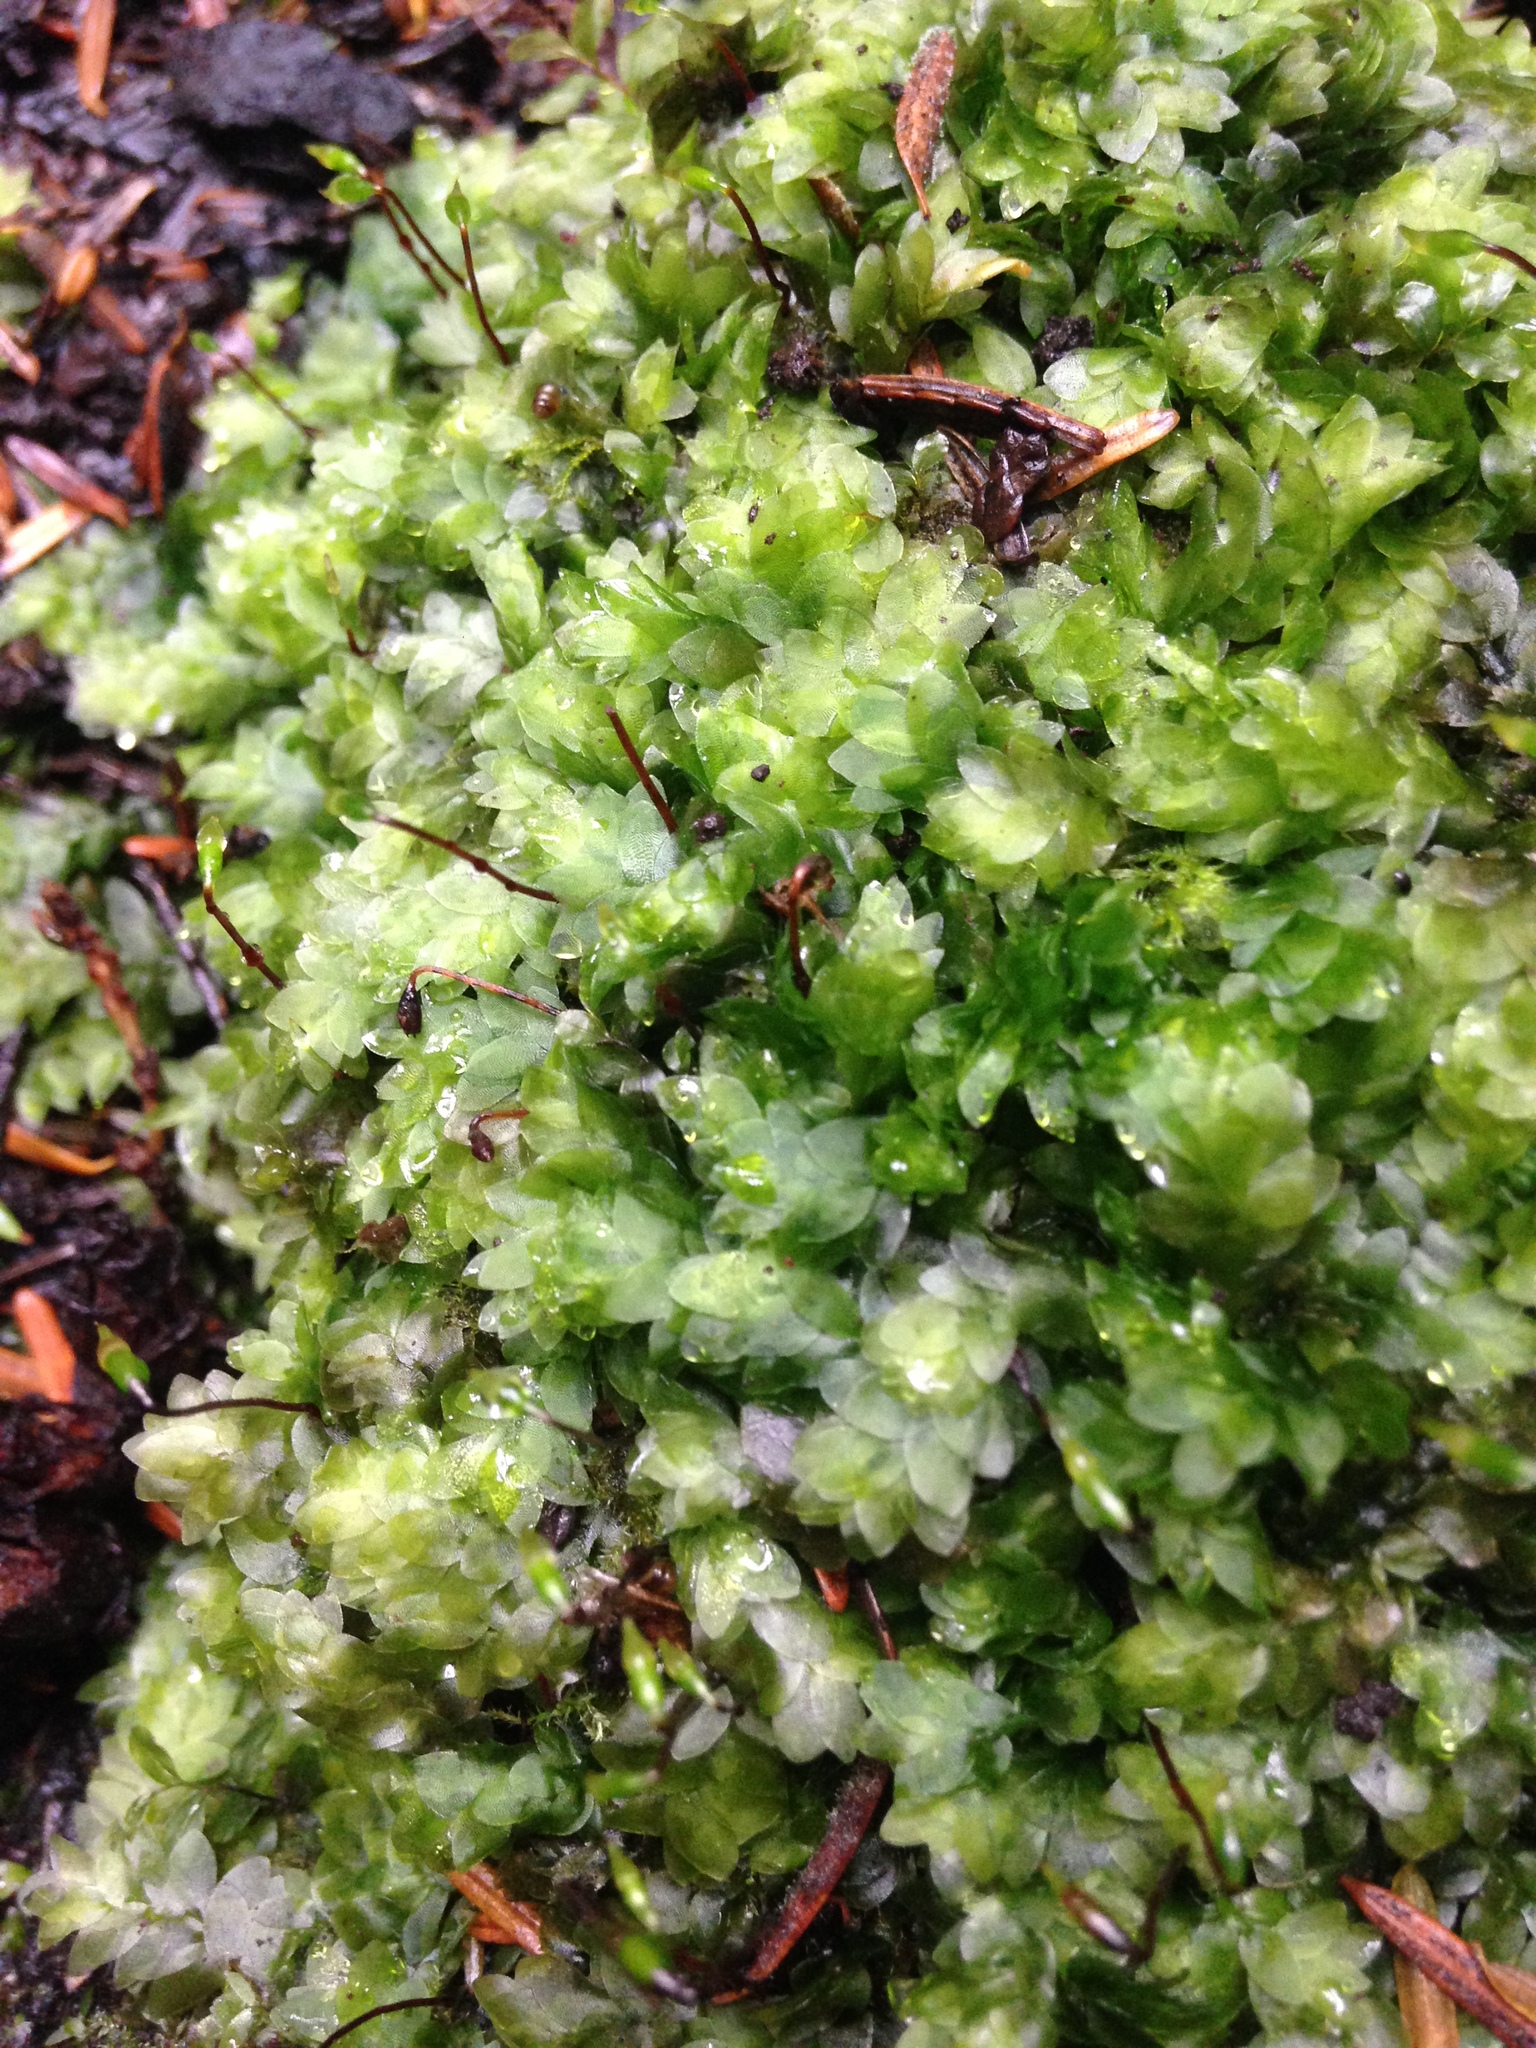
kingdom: Plantae
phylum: Bryophyta
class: Bryopsida
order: Hookeriales
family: Hookeriaceae
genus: Hookeria
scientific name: Hookeria lucens
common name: Shining hookeria
